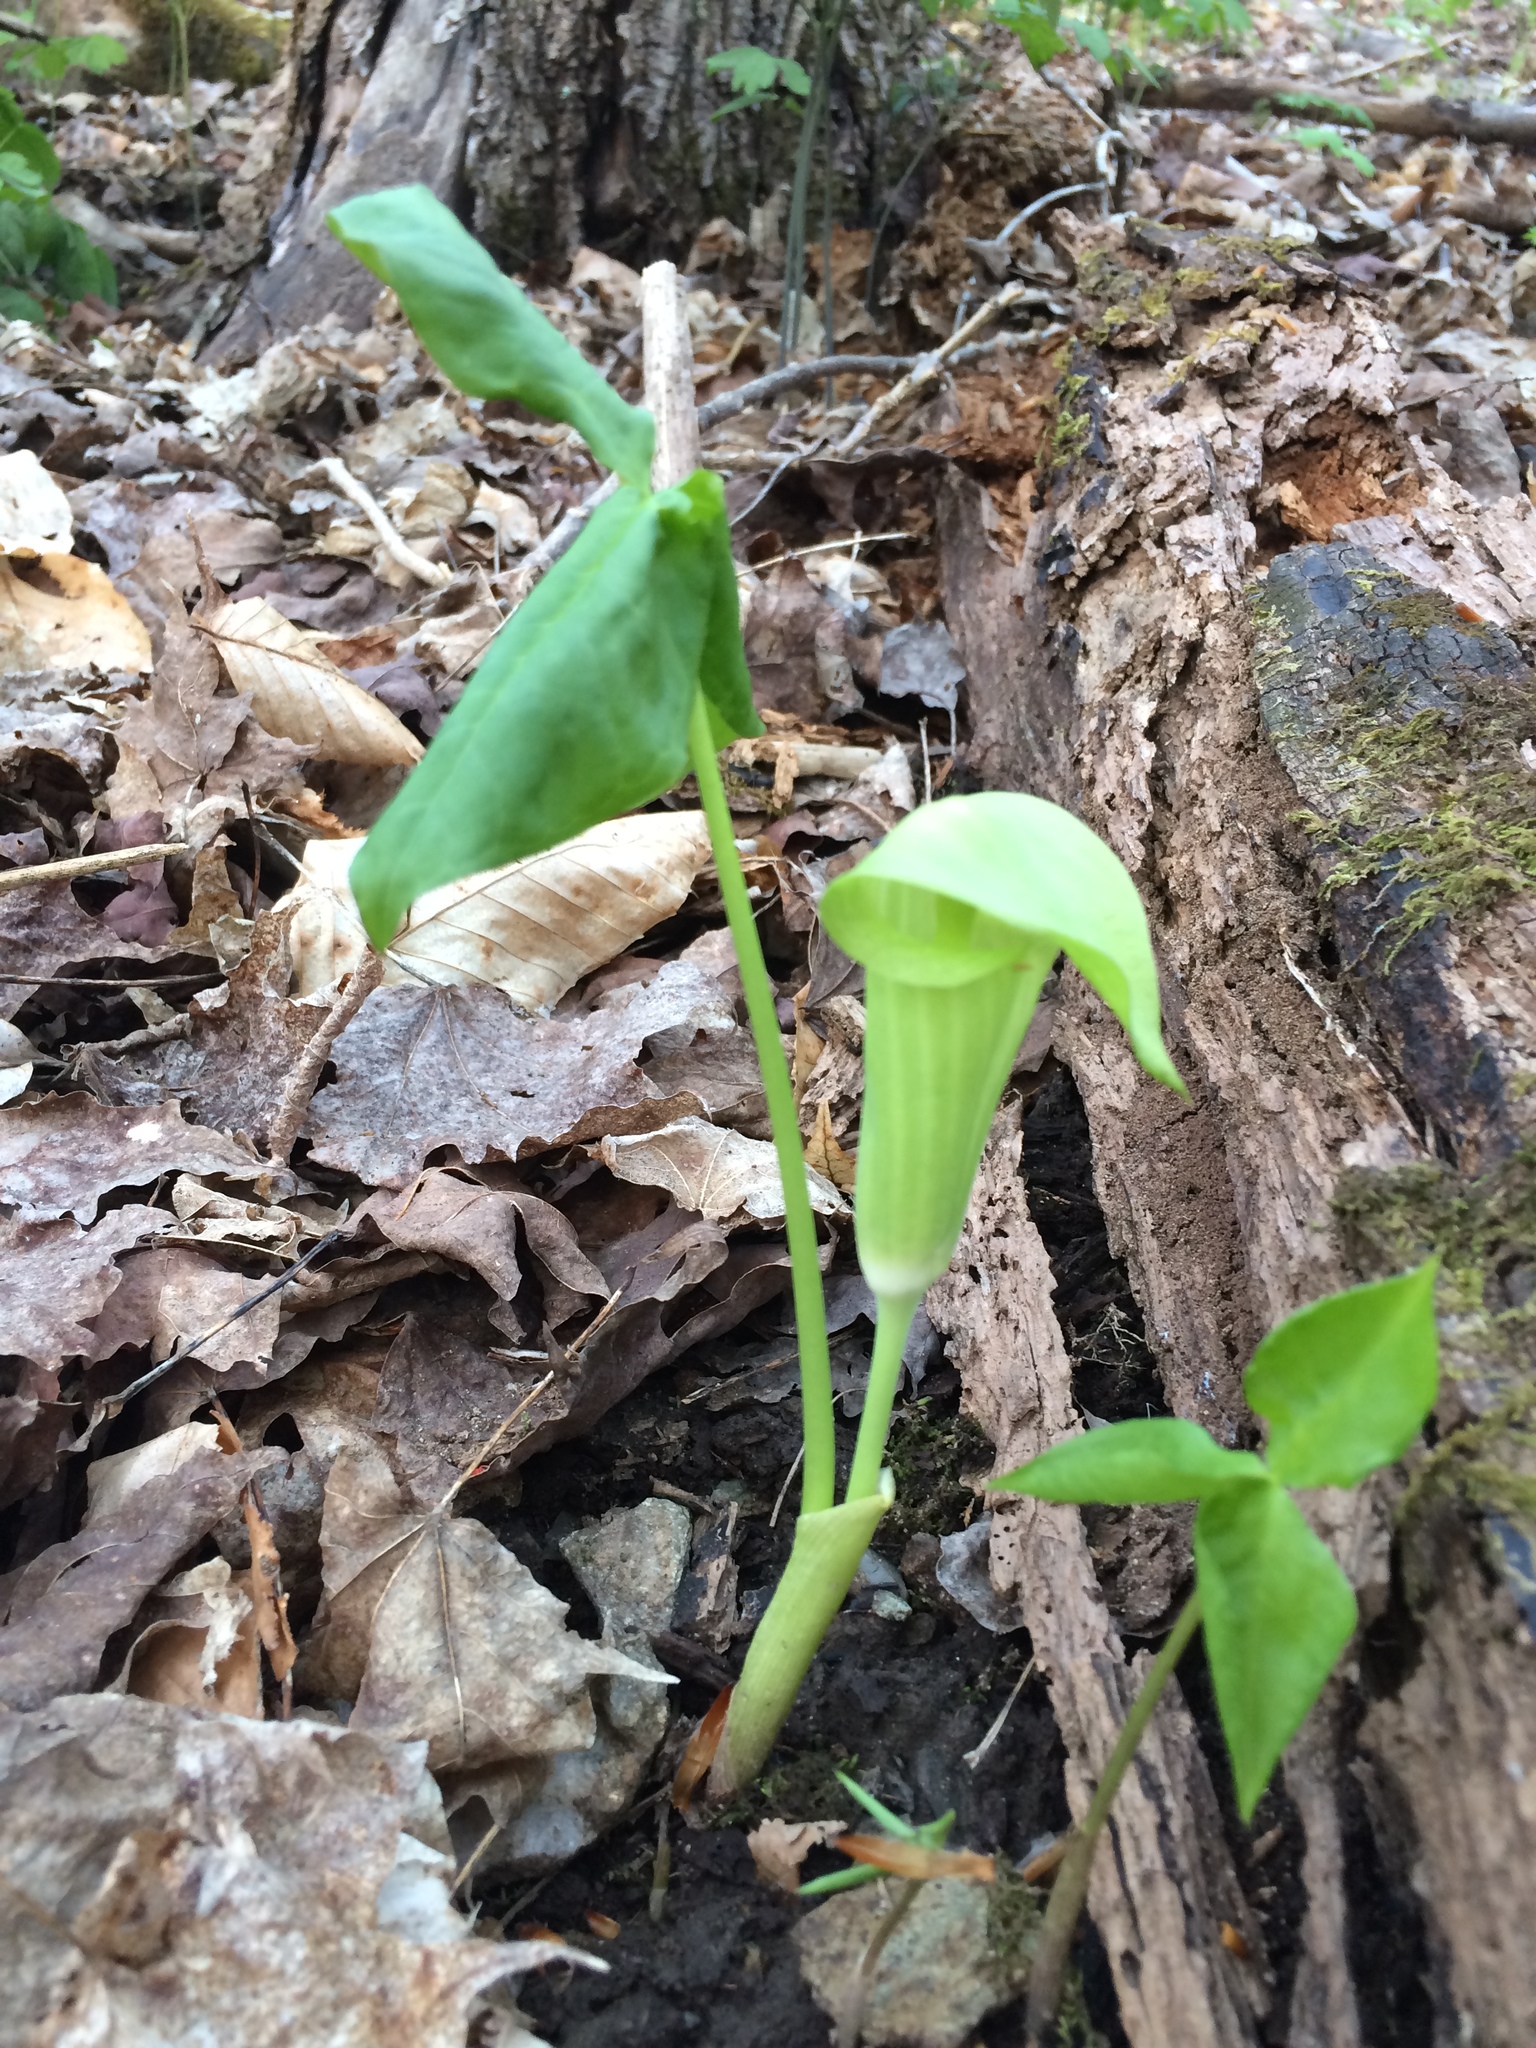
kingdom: Plantae
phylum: Tracheophyta
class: Liliopsida
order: Alismatales
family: Araceae
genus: Arisaema
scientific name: Arisaema triphyllum
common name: Jack-in-the-pulpit
